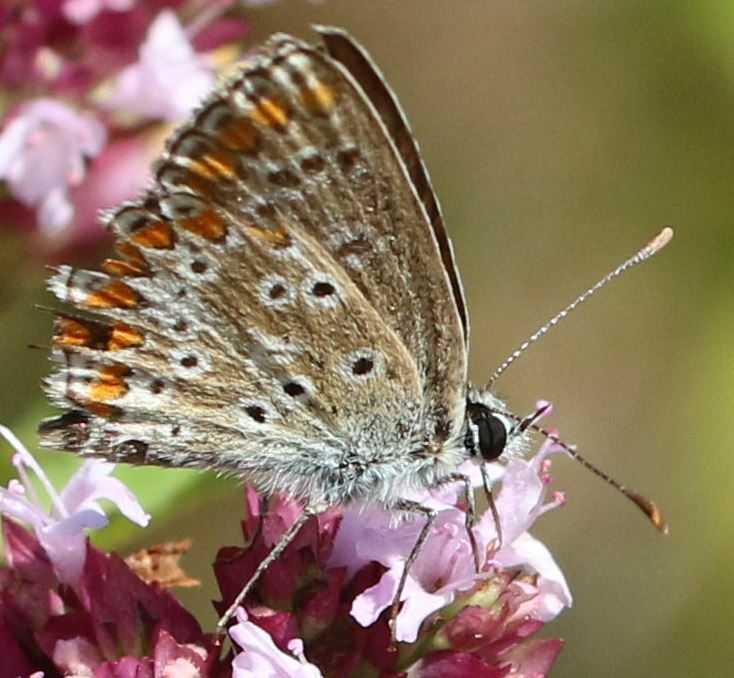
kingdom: Animalia
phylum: Arthropoda
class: Insecta
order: Lepidoptera
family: Lycaenidae
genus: Aricia
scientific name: Aricia agestis
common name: Brown argus
